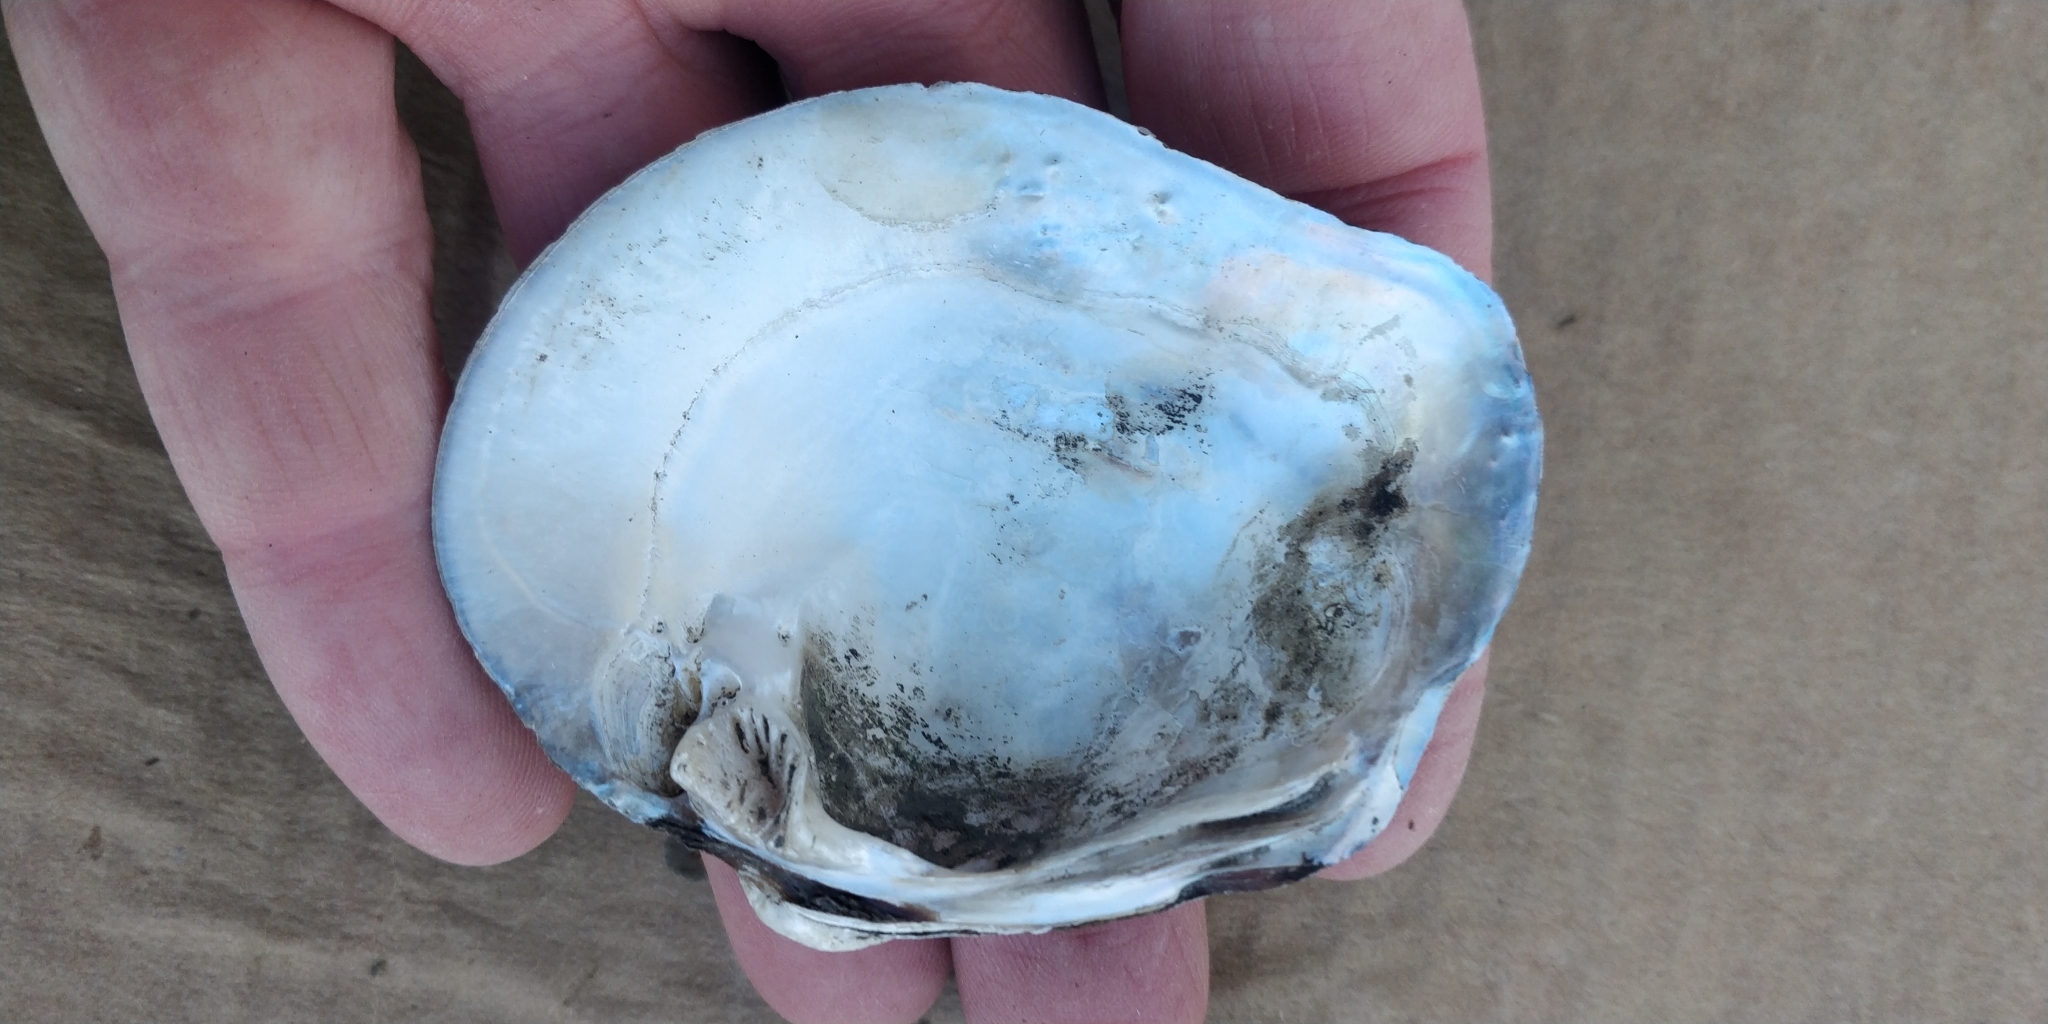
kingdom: Animalia
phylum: Mollusca
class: Bivalvia
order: Unionida
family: Unionidae
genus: Quadrula
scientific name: Quadrula quadrula
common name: Mapleleaf
